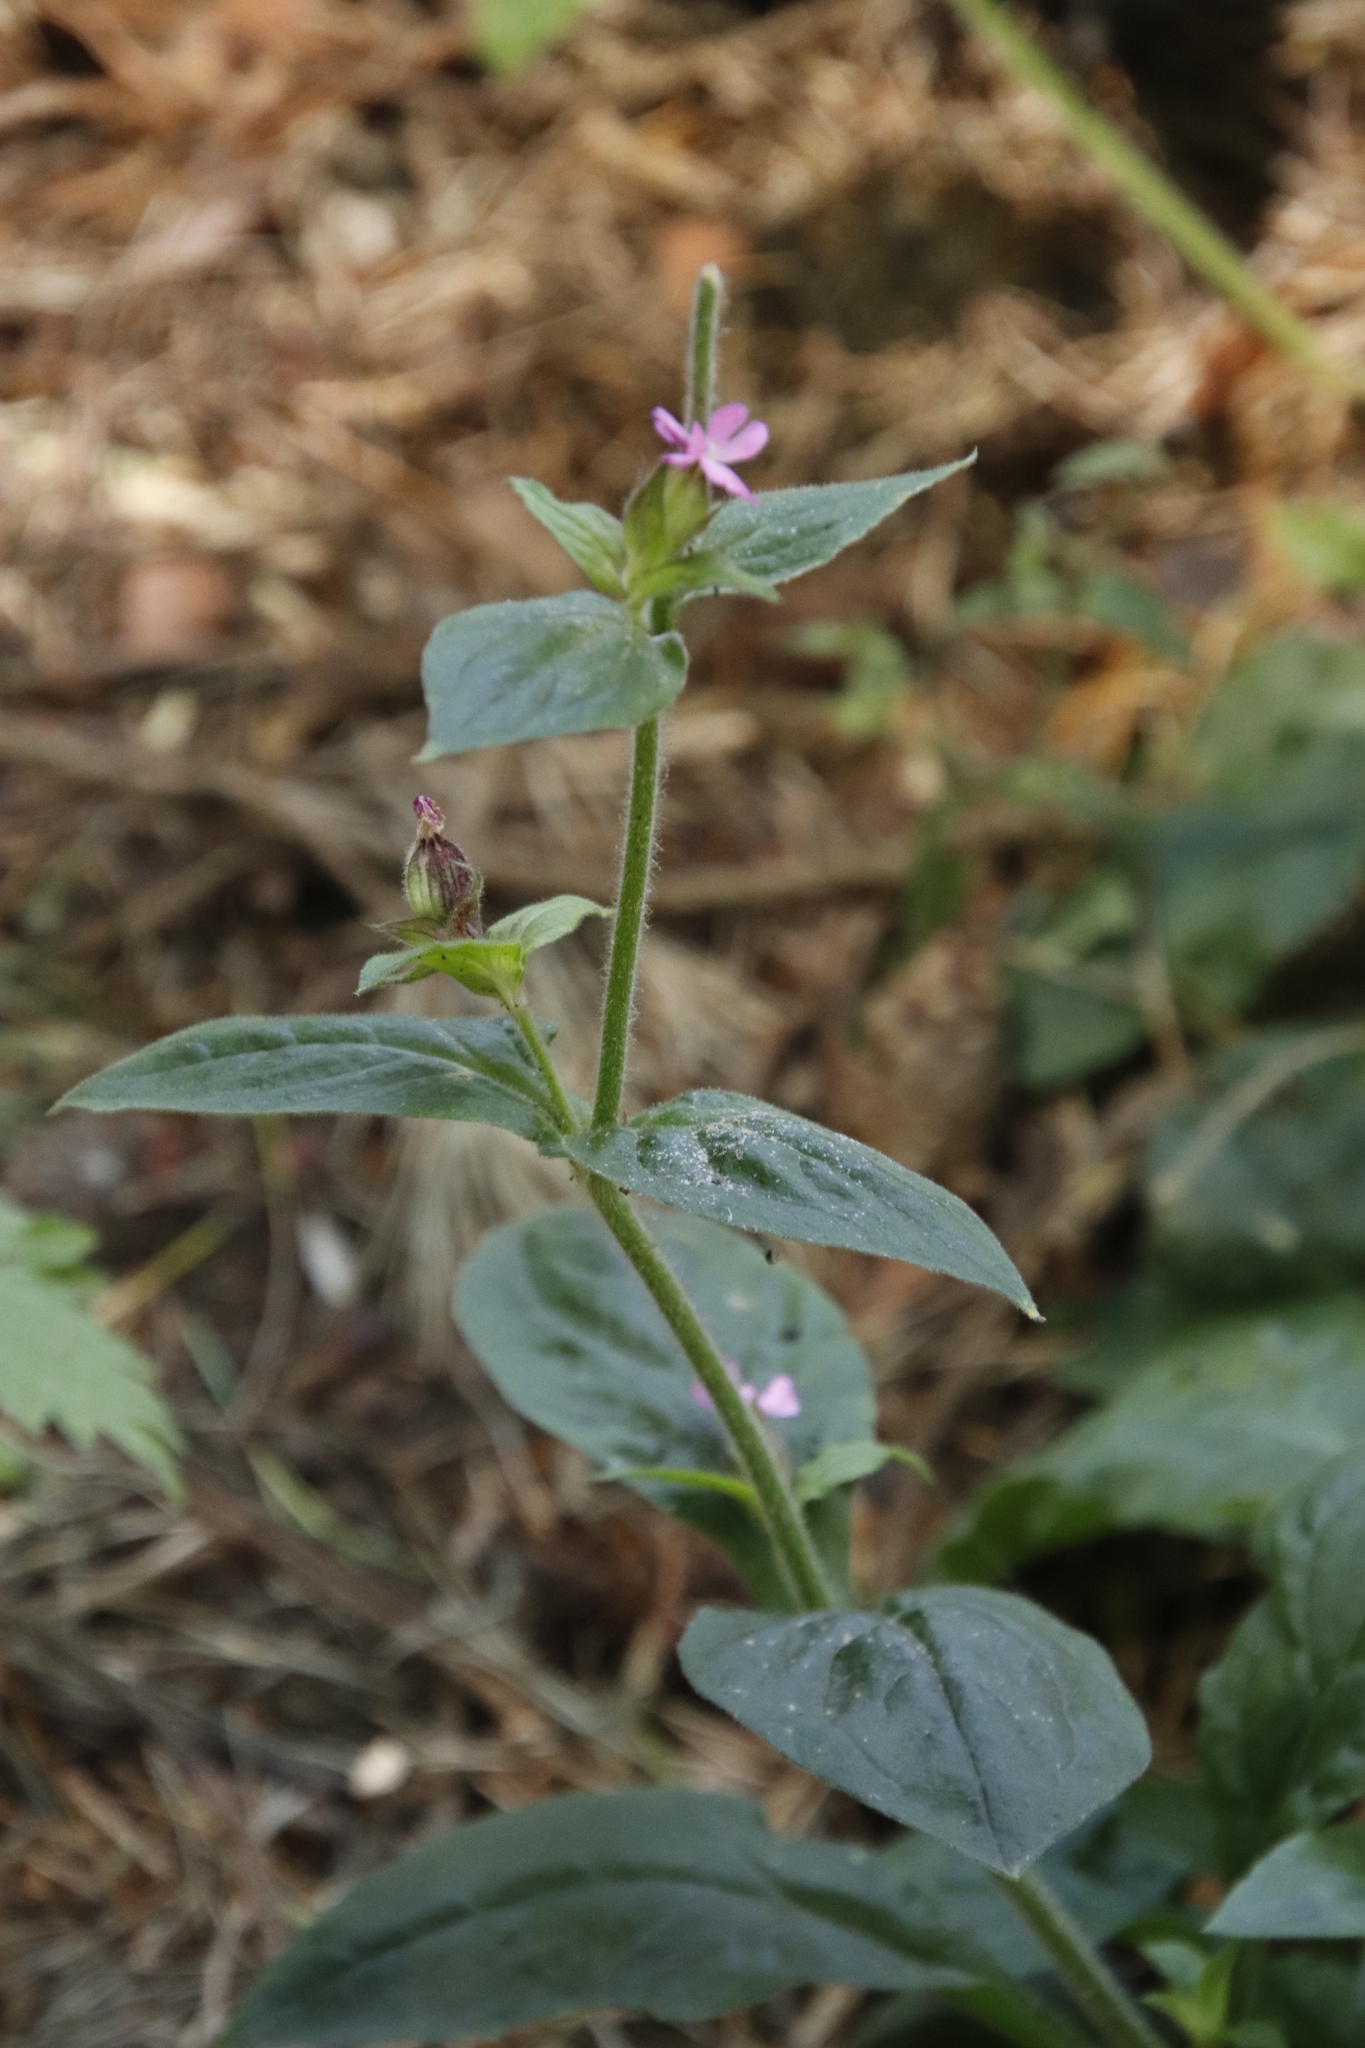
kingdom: Plantae
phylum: Tracheophyta
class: Magnoliopsida
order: Caryophyllales
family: Caryophyllaceae
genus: Silene
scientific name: Silene dioica
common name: Red campion
